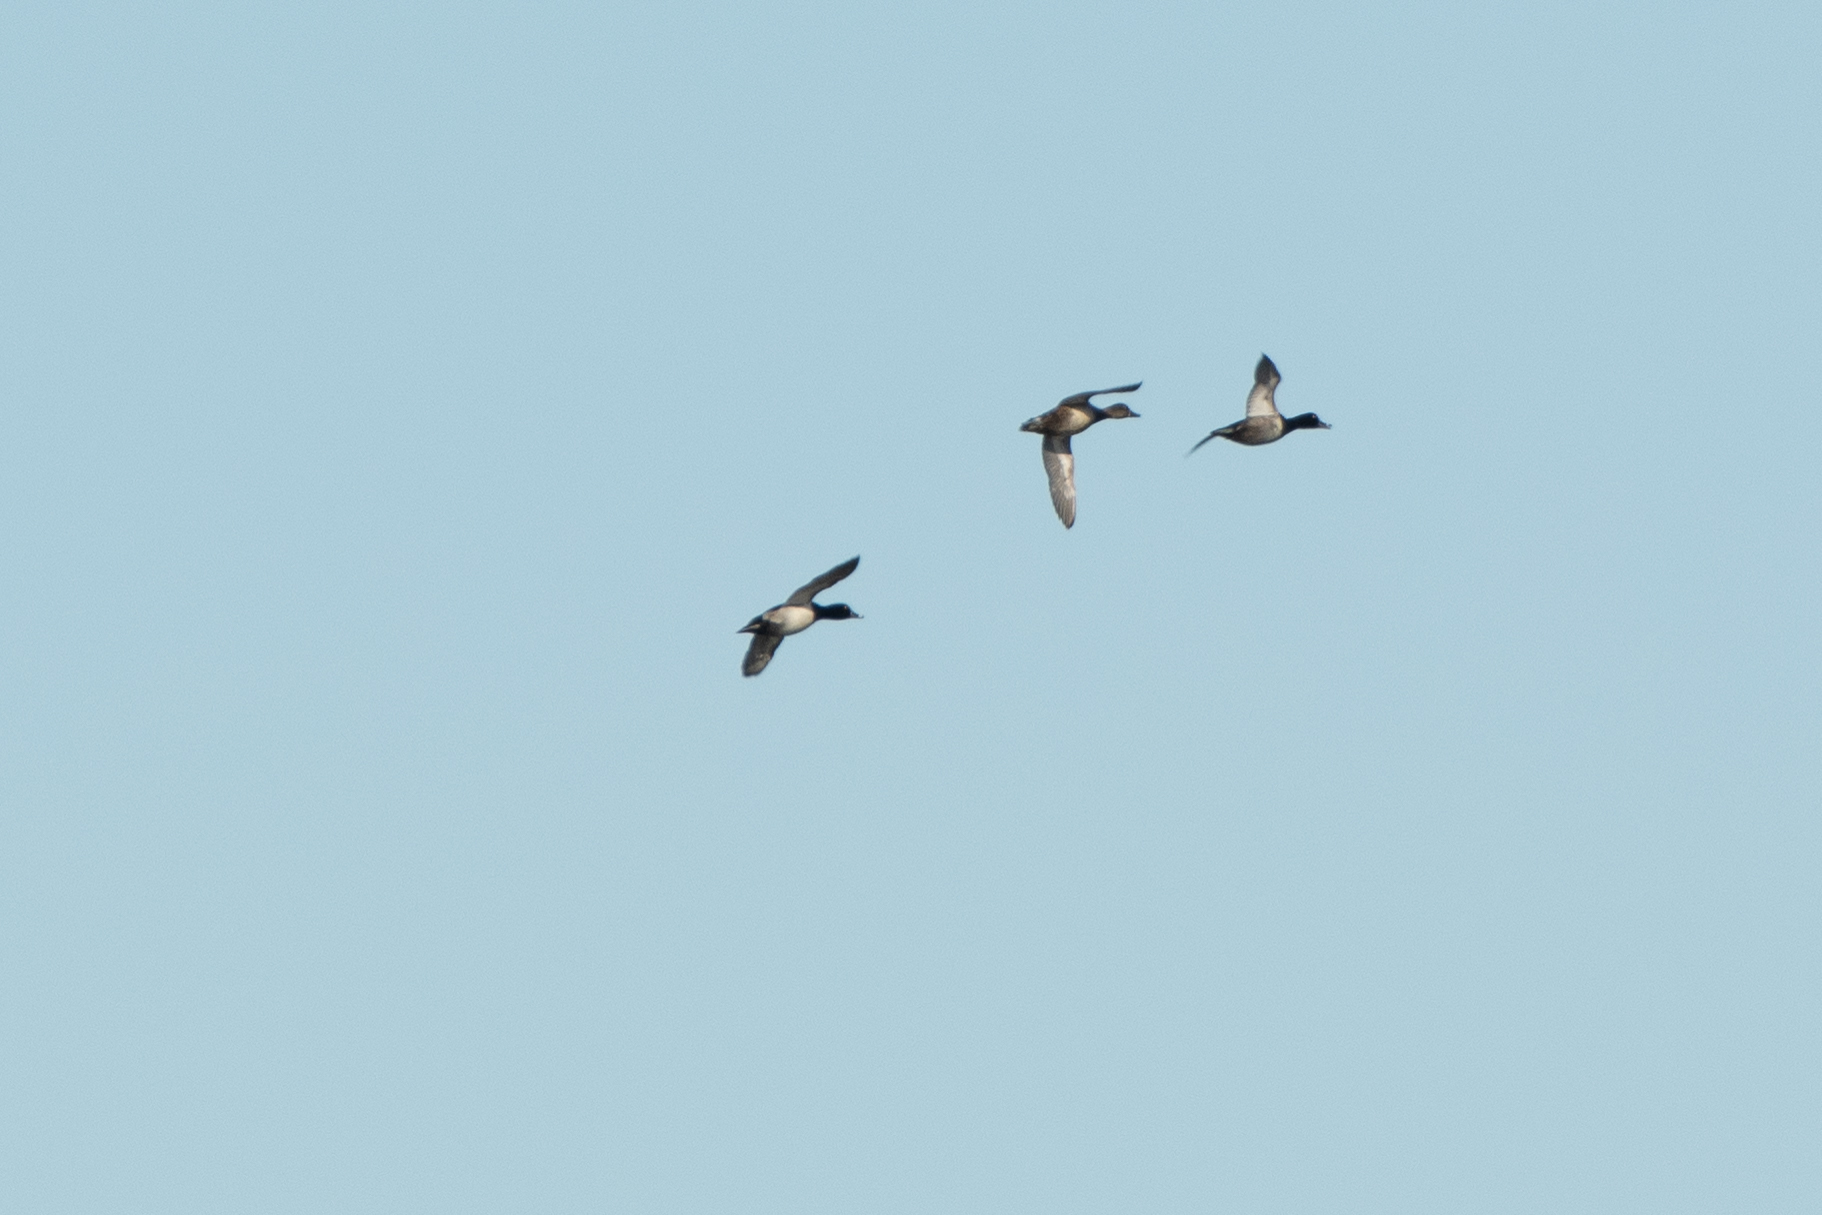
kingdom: Animalia
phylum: Chordata
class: Aves
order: Anseriformes
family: Anatidae
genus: Aythya
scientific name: Aythya collaris
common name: Ring-necked duck
